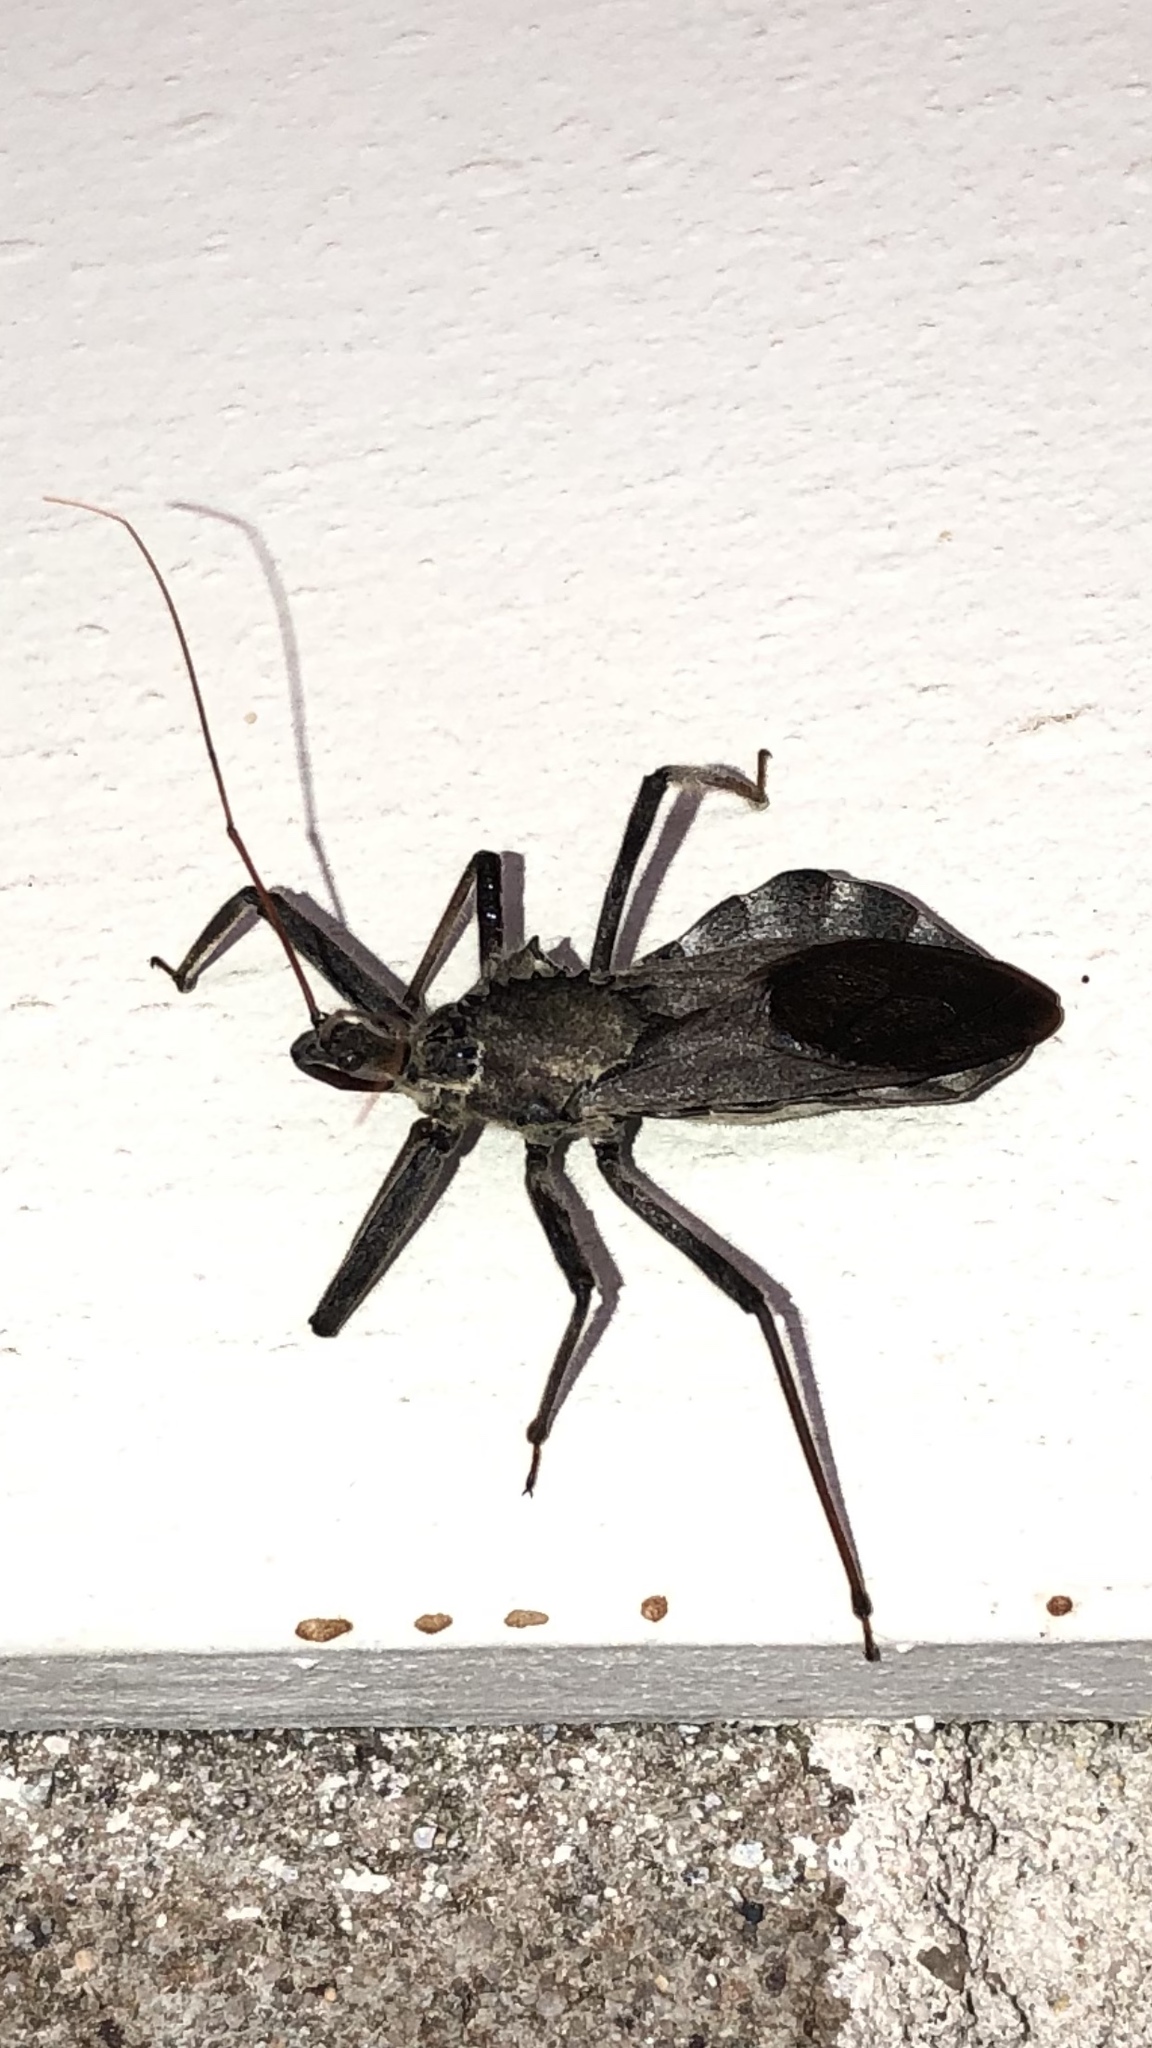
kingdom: Animalia
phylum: Arthropoda
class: Insecta
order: Hemiptera
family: Reduviidae
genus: Arilus
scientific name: Arilus cristatus
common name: North american wheel bug
